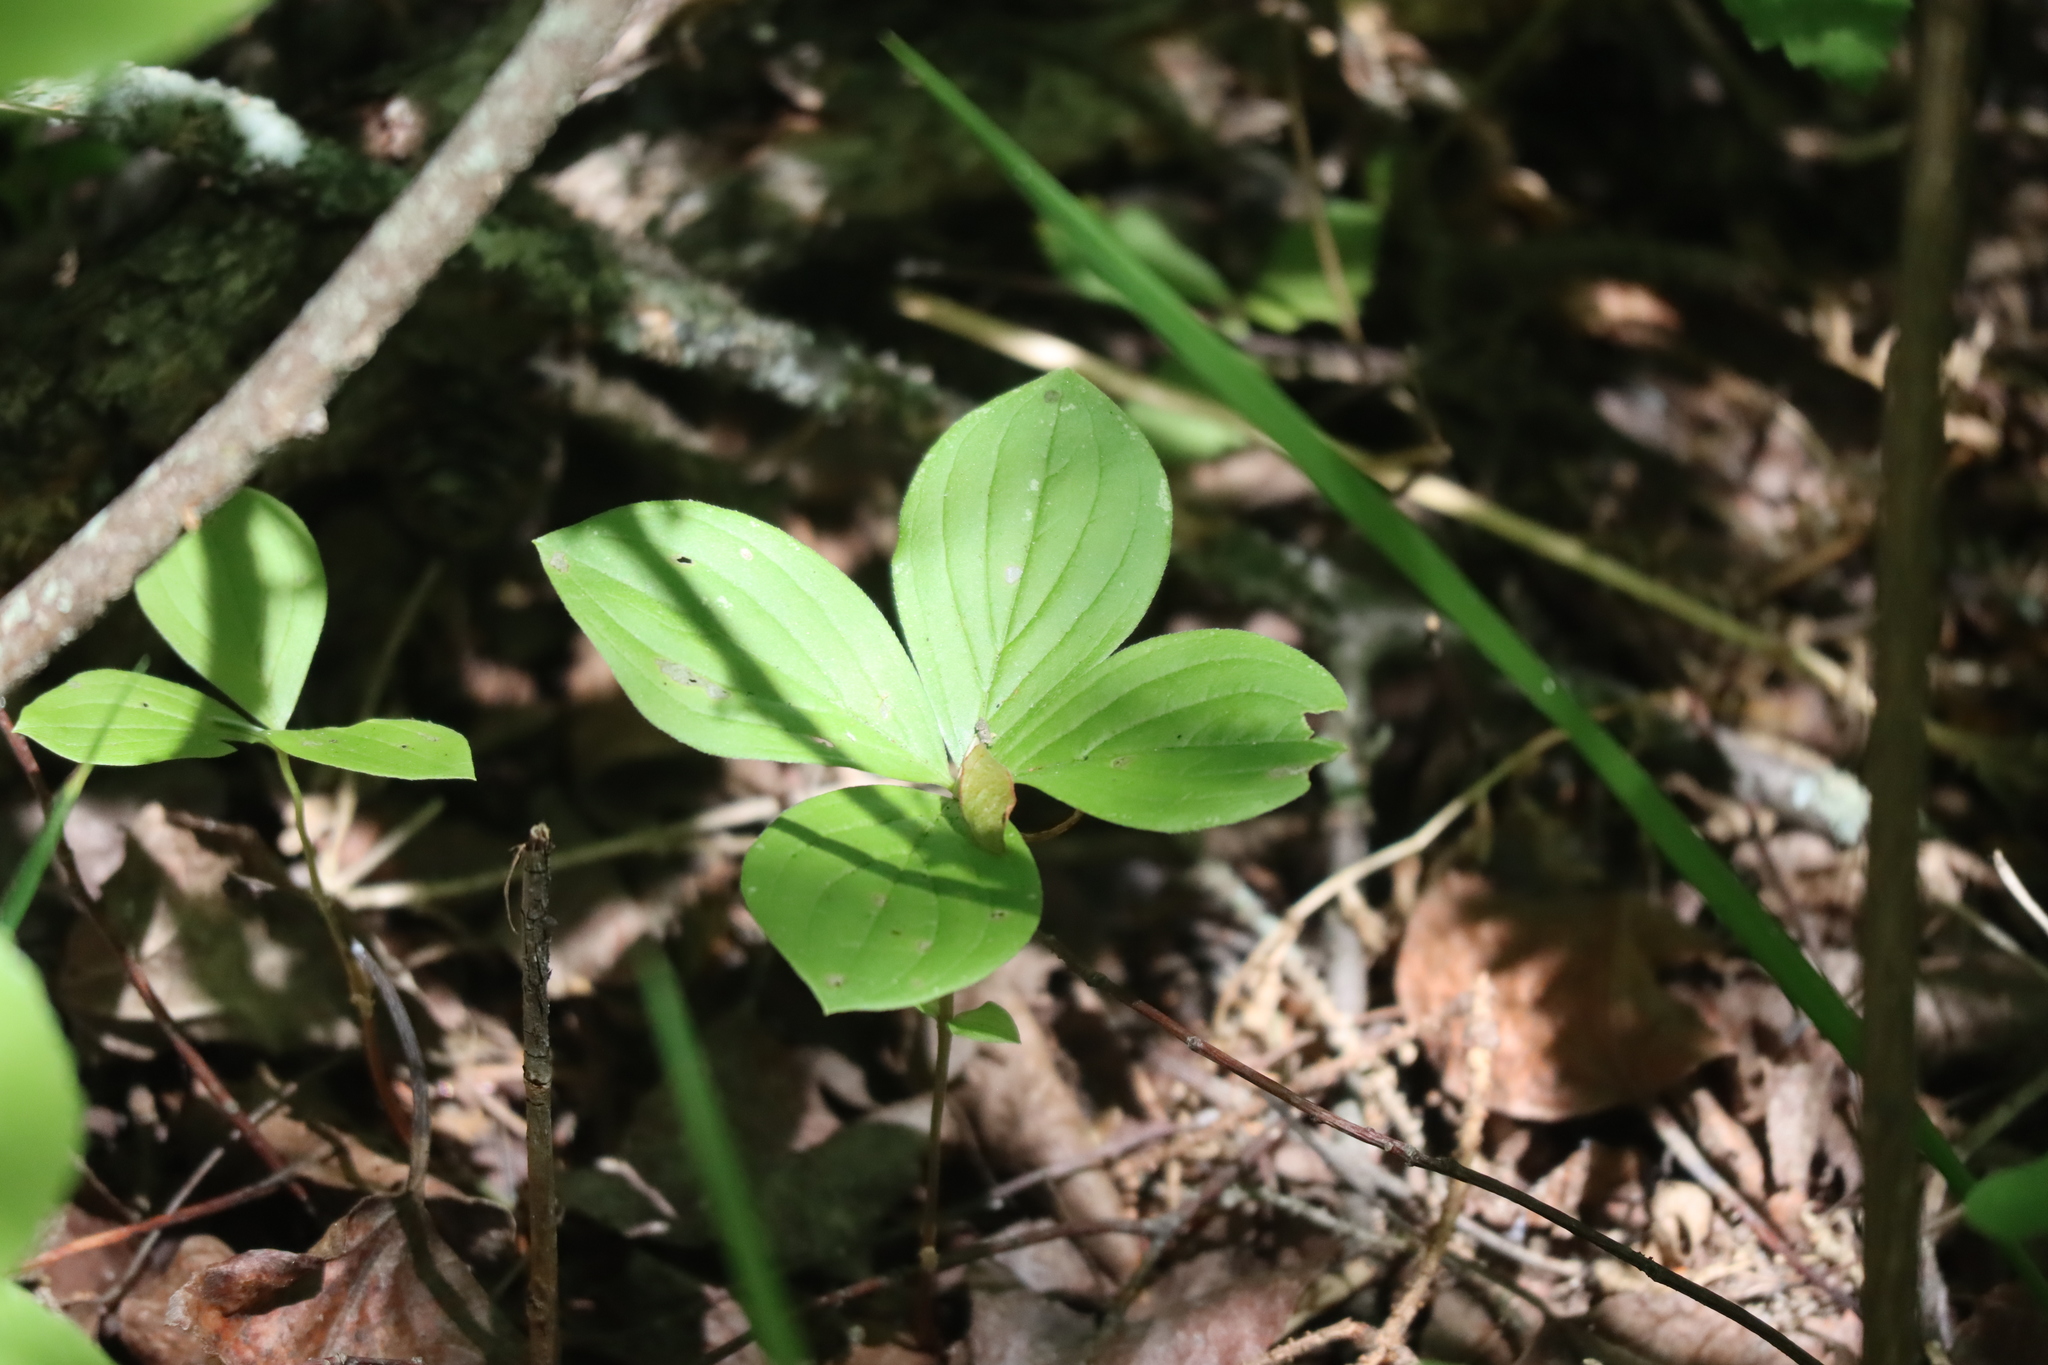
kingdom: Plantae
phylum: Tracheophyta
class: Magnoliopsida
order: Cornales
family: Cornaceae
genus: Cornus
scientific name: Cornus canadensis
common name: Creeping dogwood
